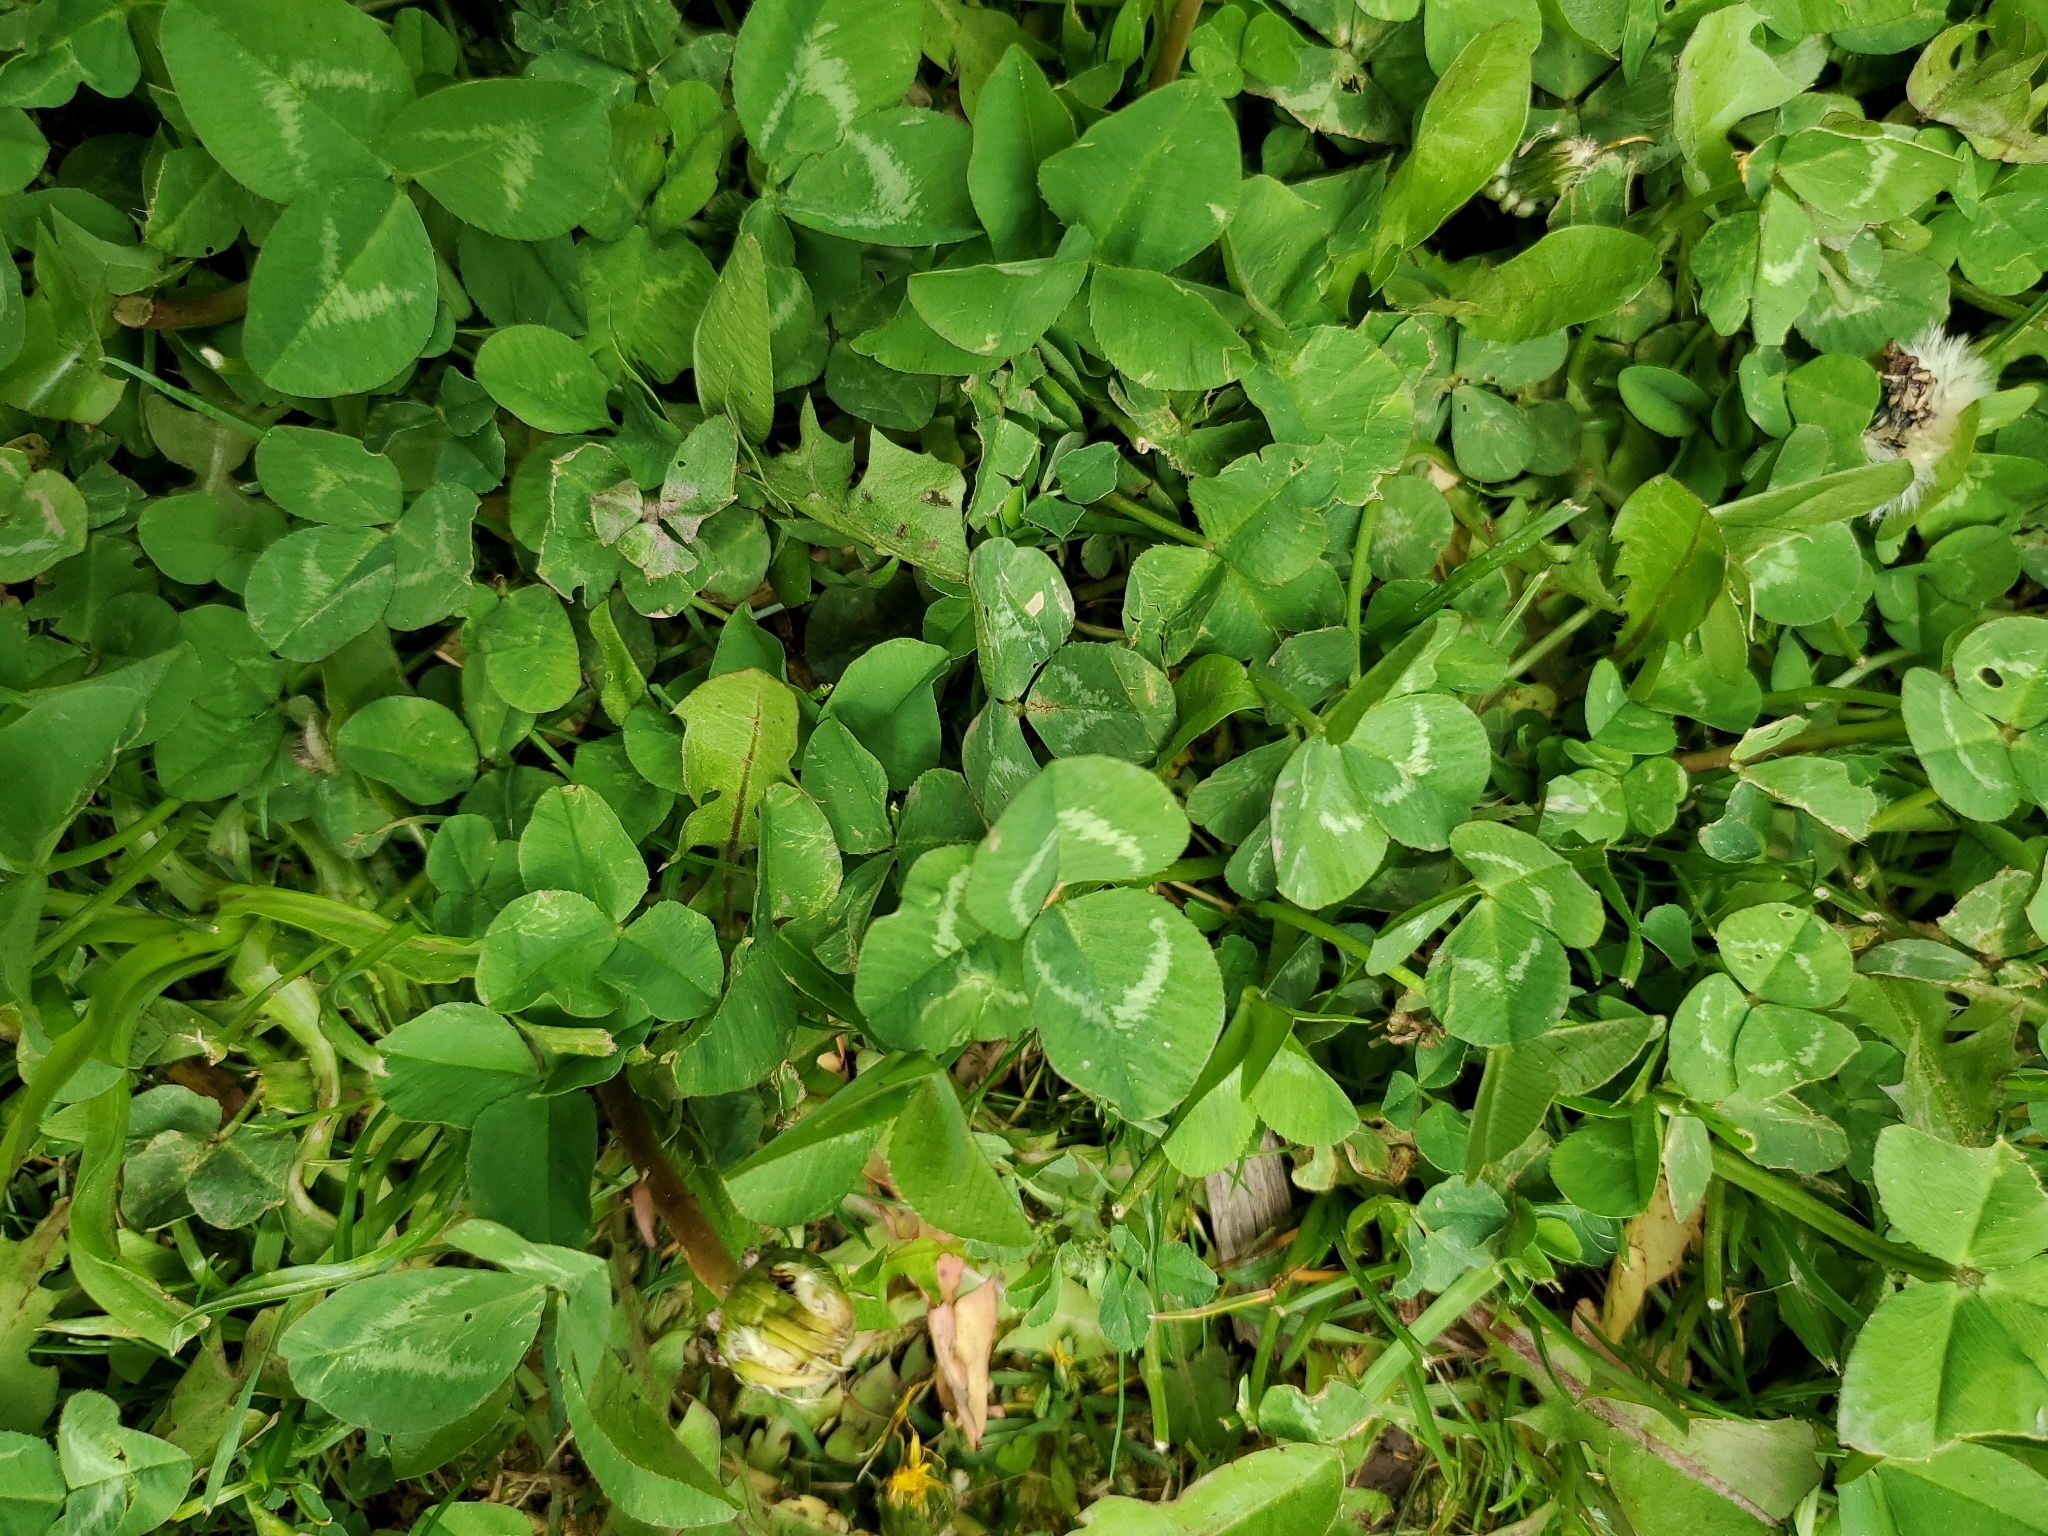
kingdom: Plantae
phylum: Tracheophyta
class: Magnoliopsida
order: Fabales
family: Fabaceae
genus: Trifolium
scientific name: Trifolium repens
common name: White clover
